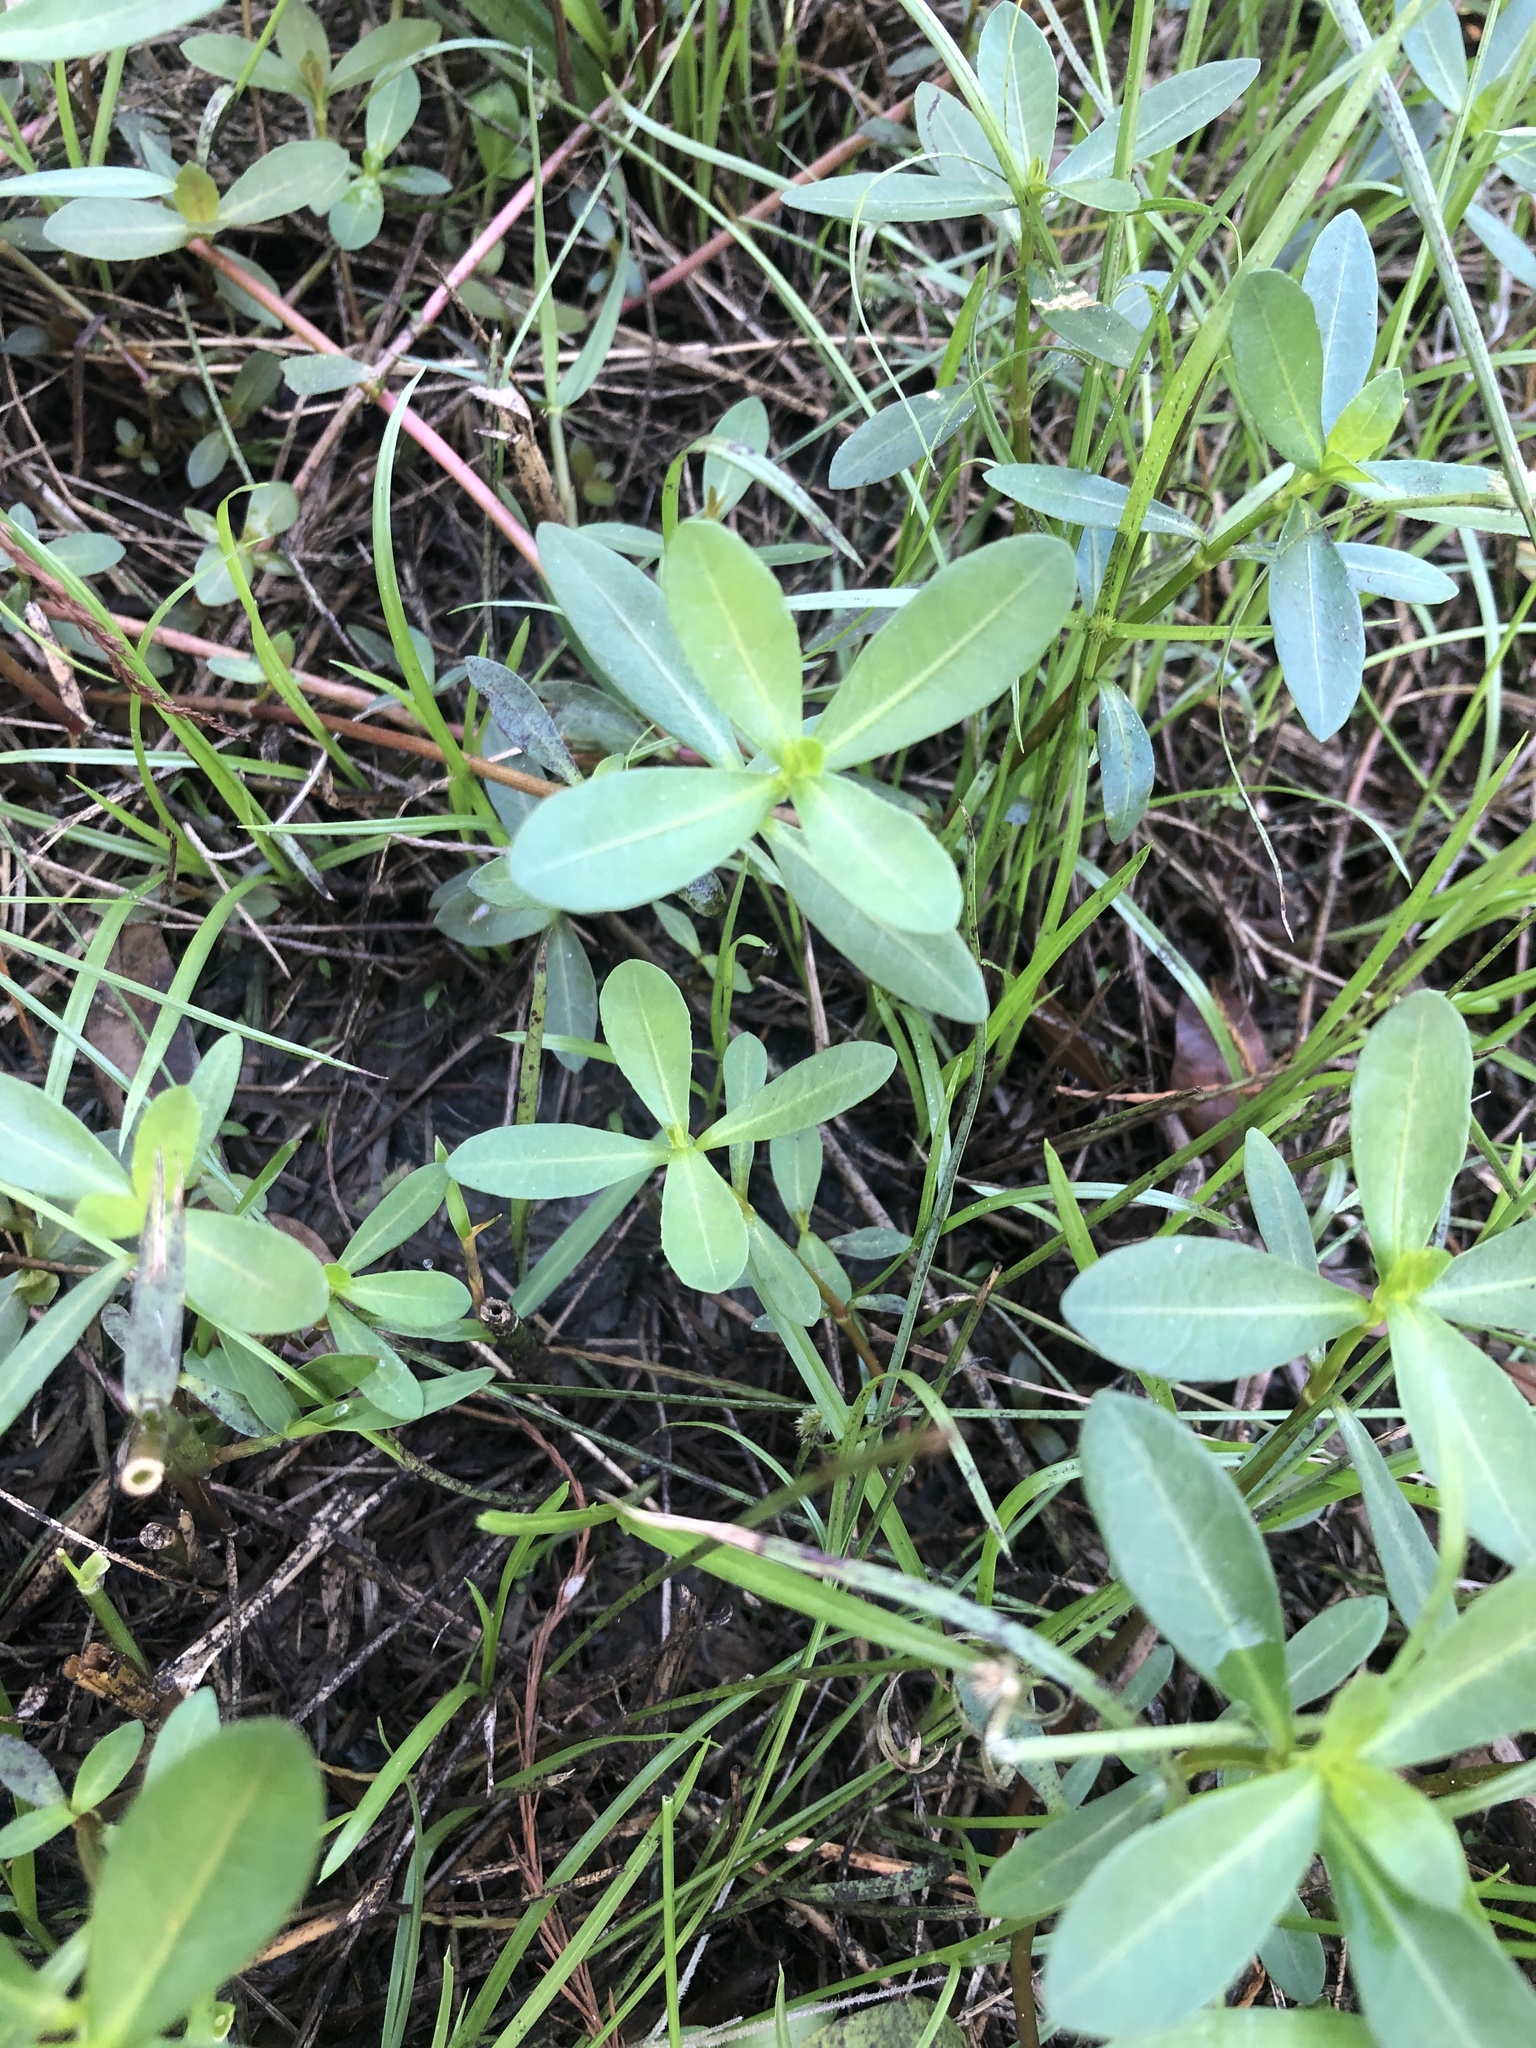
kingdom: Plantae
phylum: Tracheophyta
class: Magnoliopsida
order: Caryophyllales
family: Amaranthaceae
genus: Alternanthera
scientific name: Alternanthera philoxeroides
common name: Alligatorweed
